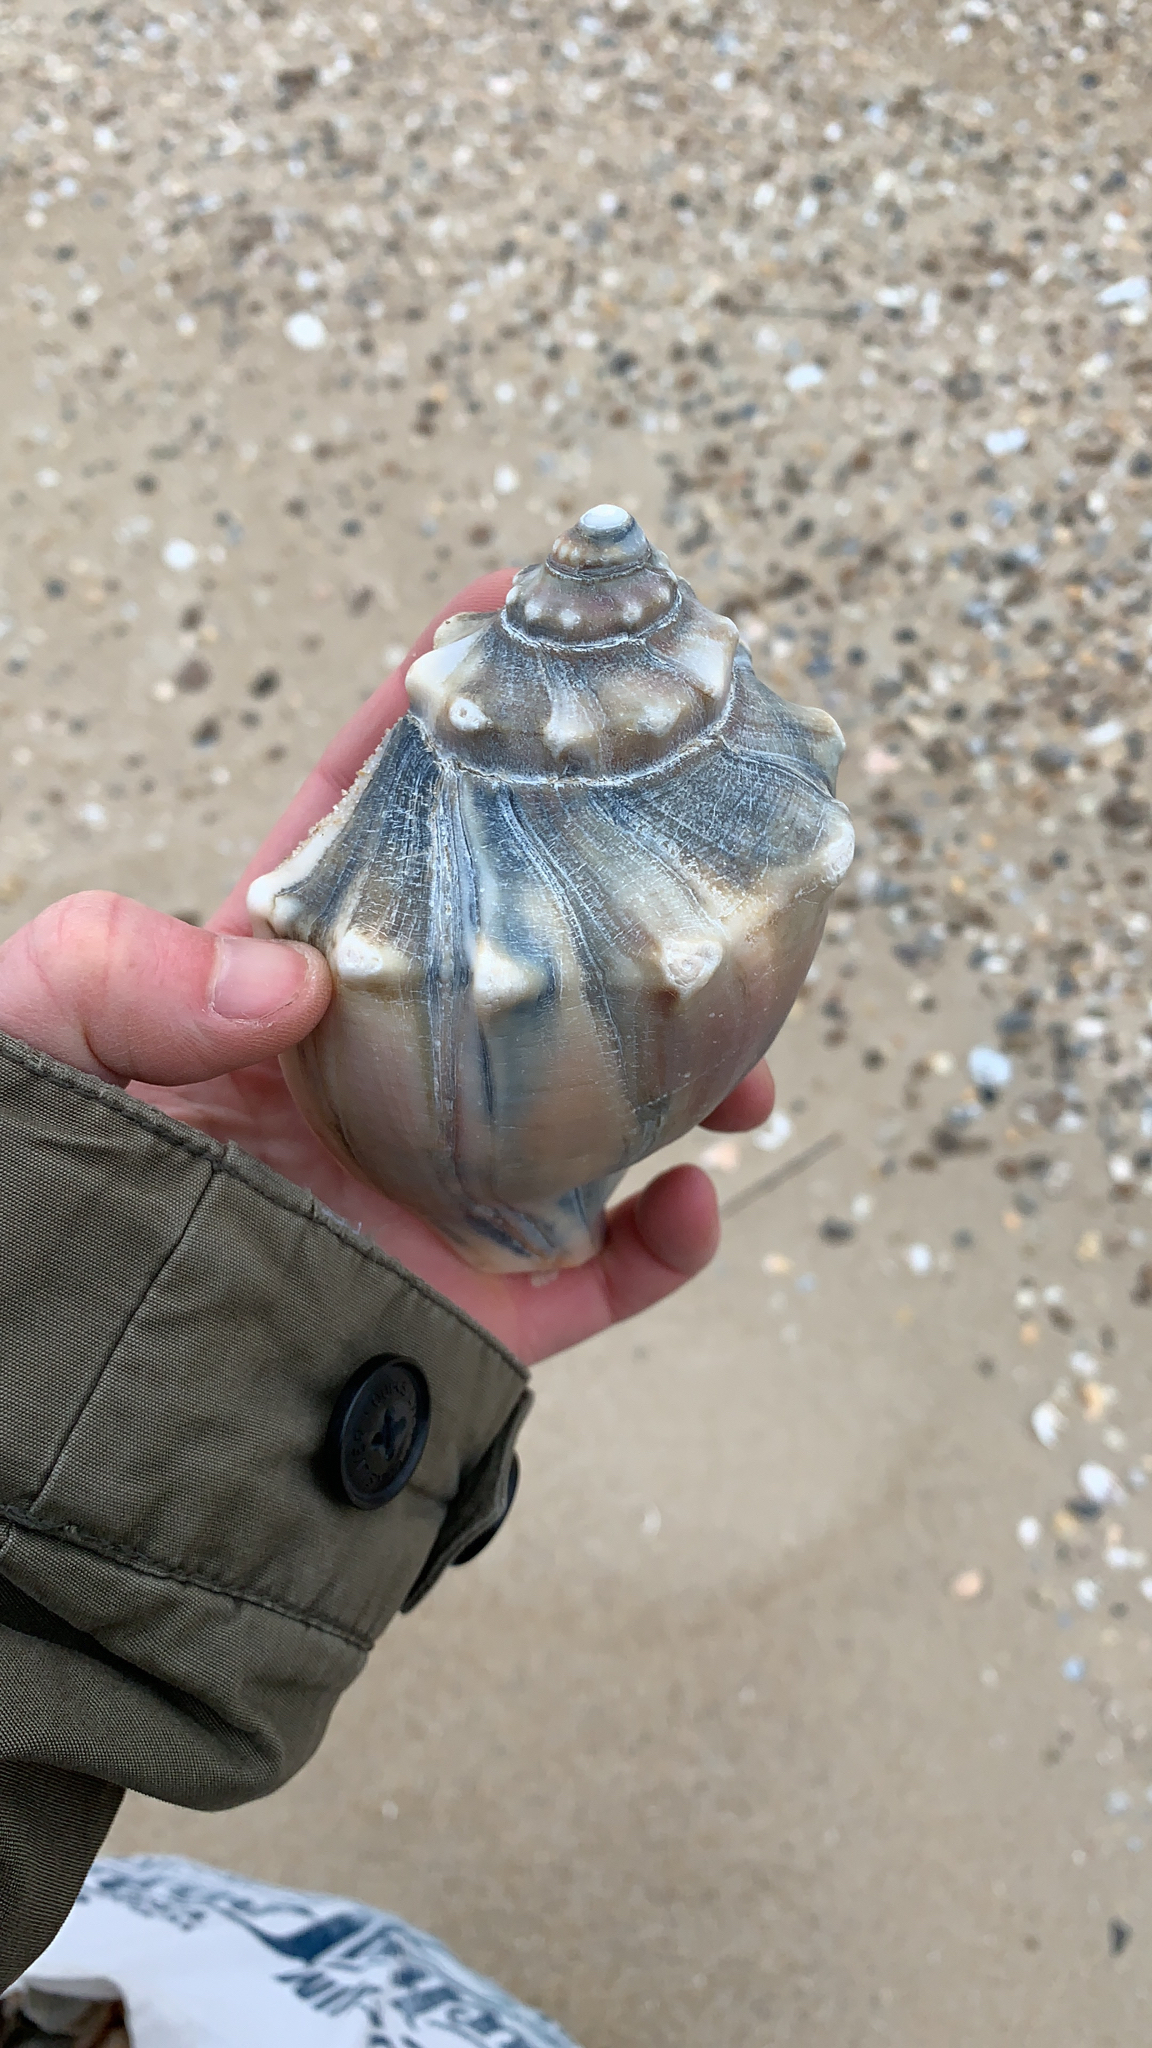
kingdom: Animalia
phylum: Mollusca
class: Gastropoda
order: Neogastropoda
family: Busyconidae
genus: Busycon
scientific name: Busycon carica
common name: Knobbed whelk
